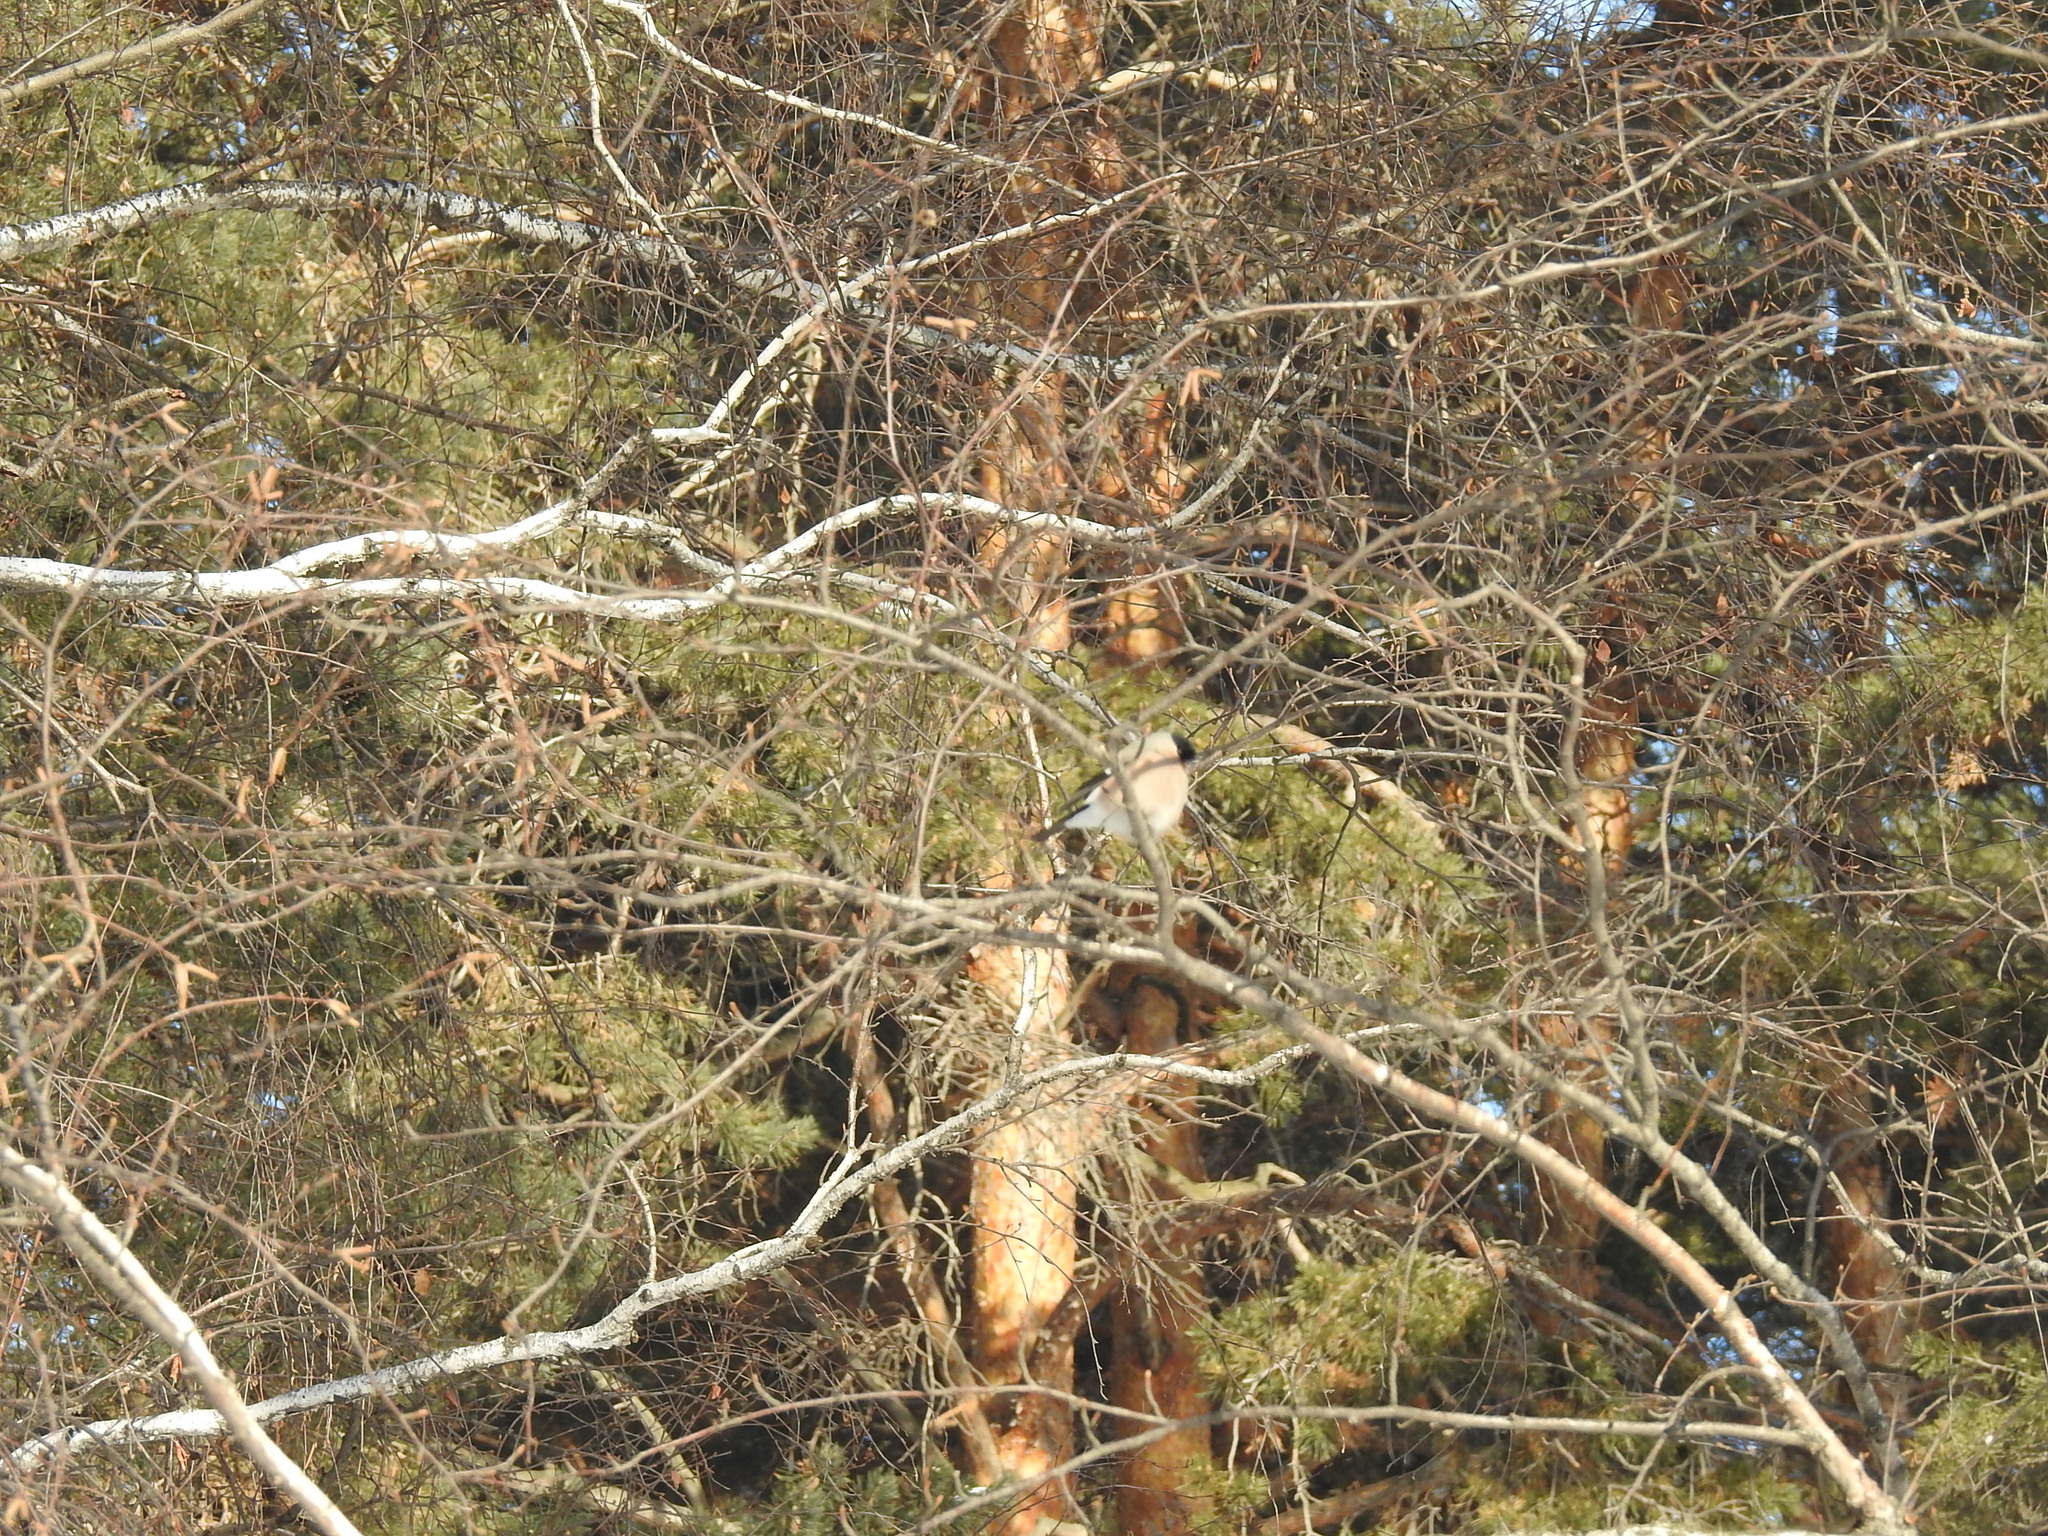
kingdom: Animalia
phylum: Chordata
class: Aves
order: Passeriformes
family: Fringillidae
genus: Pyrrhula
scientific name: Pyrrhula pyrrhula
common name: Eurasian bullfinch
